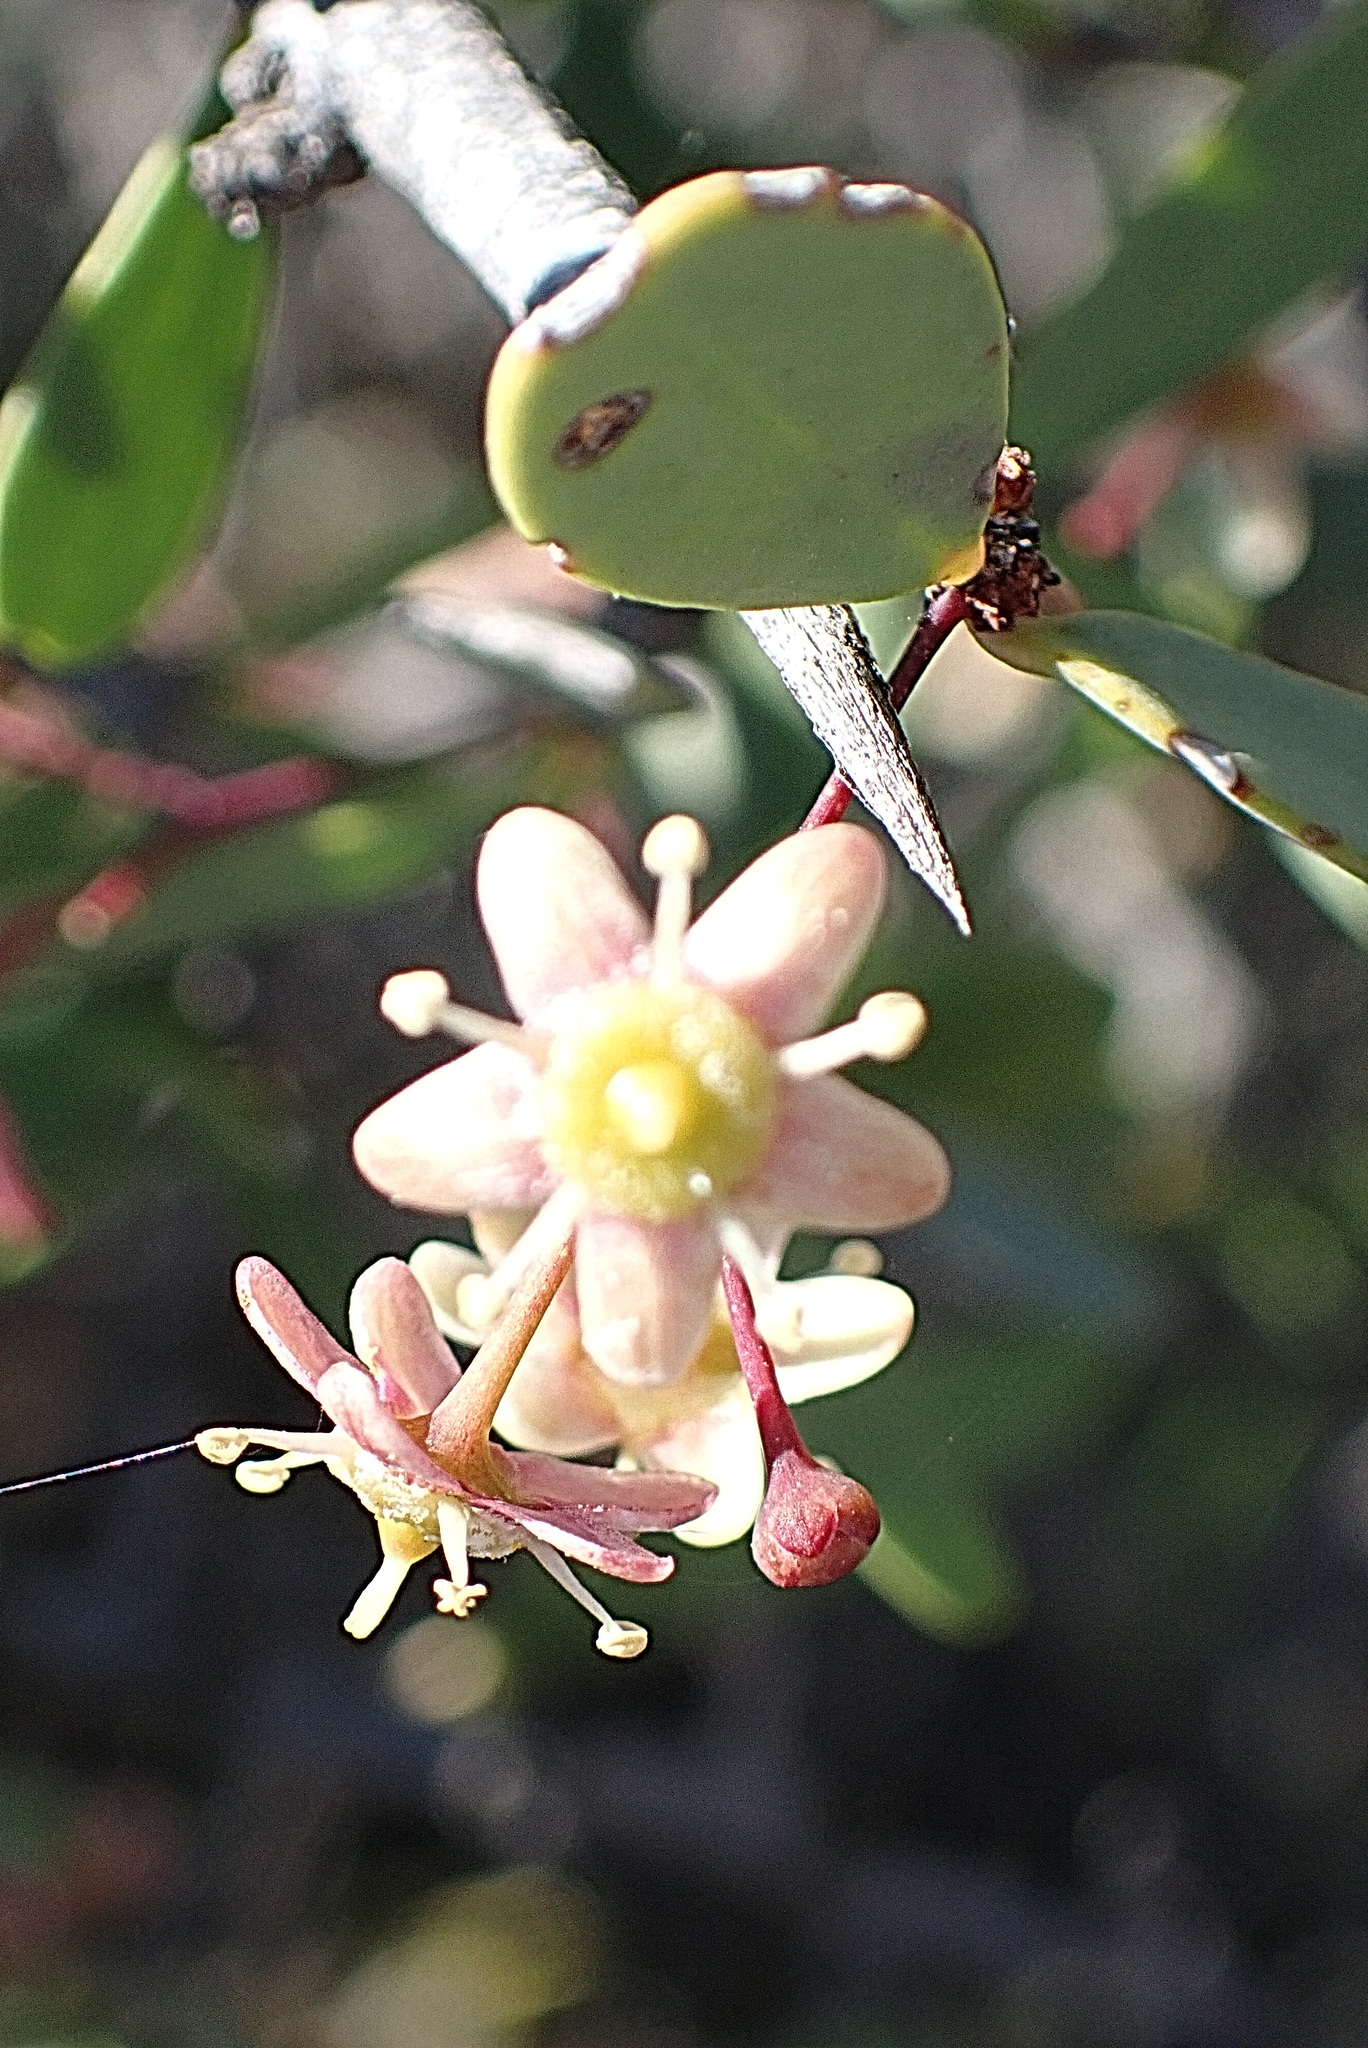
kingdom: Plantae
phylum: Tracheophyta
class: Magnoliopsida
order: Celastrales
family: Celastraceae
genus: Gloveria
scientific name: Gloveria integrifolia
